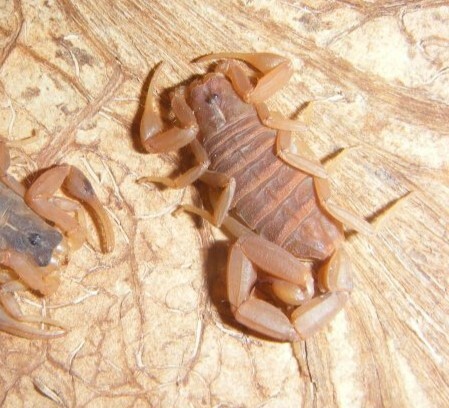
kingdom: Animalia
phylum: Arthropoda
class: Arachnida
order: Scorpiones
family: Buthidae
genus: Centruroides
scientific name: Centruroides vittatus
